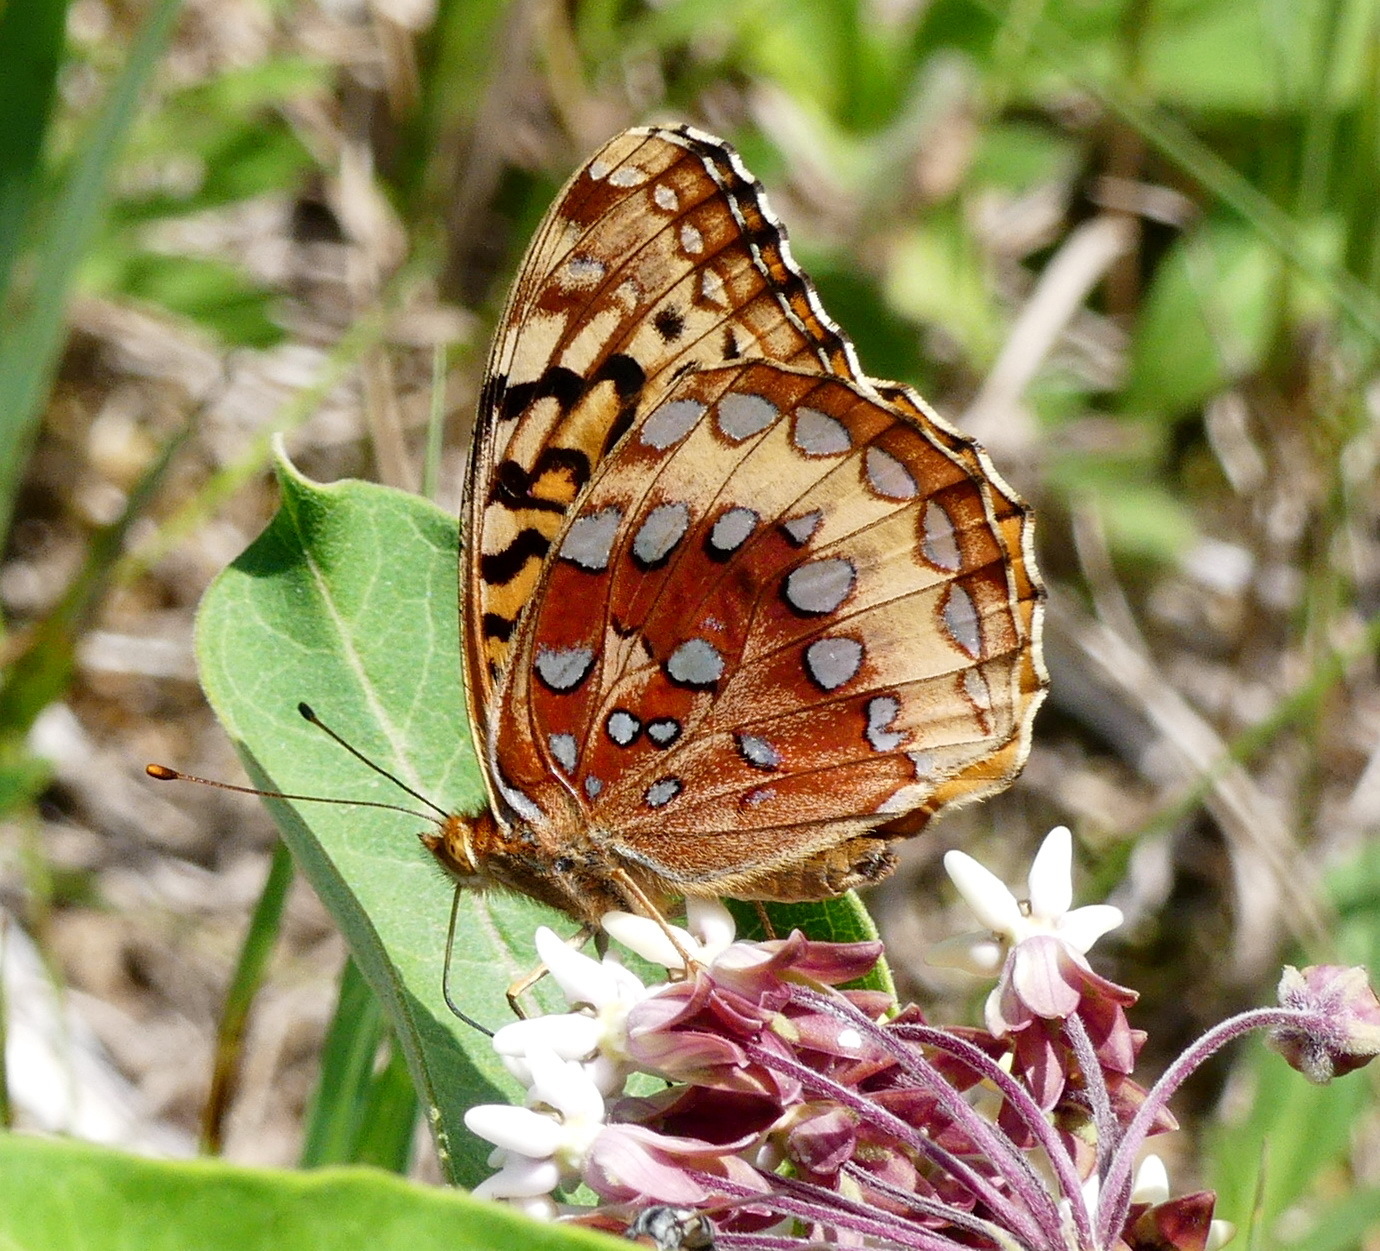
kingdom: Animalia
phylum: Arthropoda
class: Insecta
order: Lepidoptera
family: Nymphalidae
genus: Speyeria
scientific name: Speyeria cybele
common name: Great spangled fritillary
